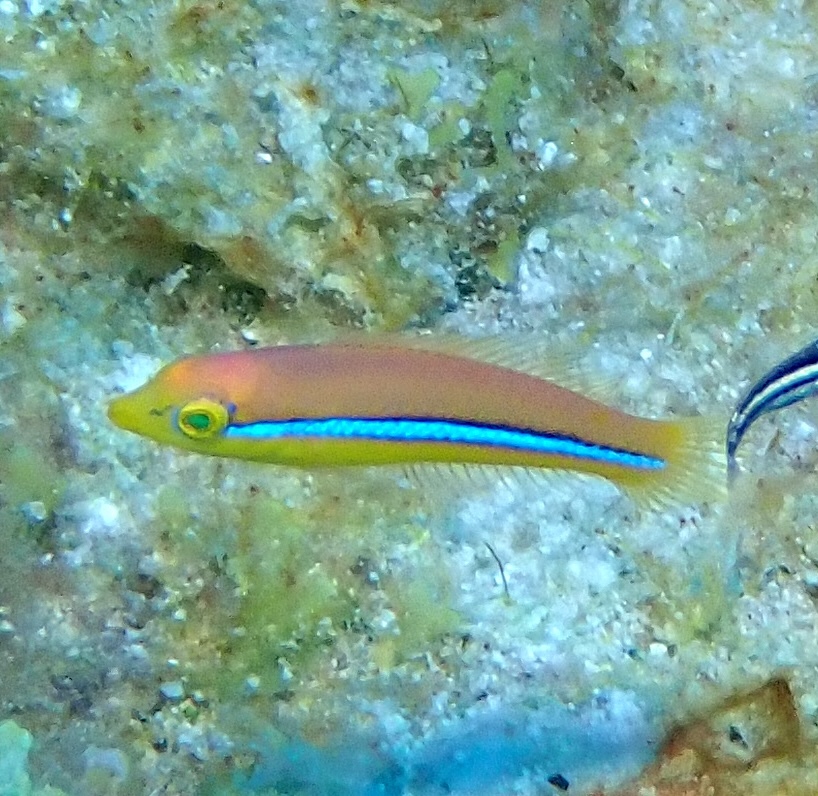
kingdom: Animalia
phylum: Chordata
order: Perciformes
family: Labridae
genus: Halichoeres
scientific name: Halichoeres garnoti
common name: Yellowhead wrasse
